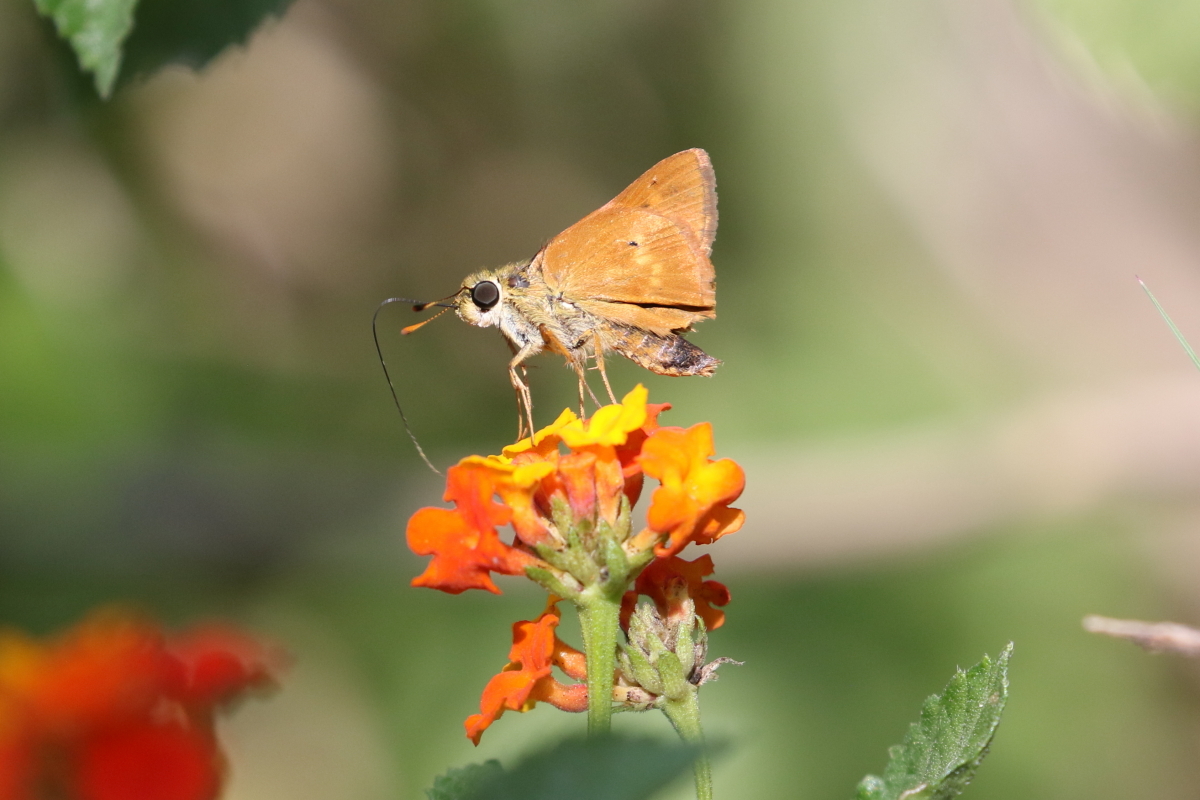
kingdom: Animalia
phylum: Arthropoda
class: Insecta
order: Lepidoptera
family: Hesperiidae
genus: Polites
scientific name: Polites otho
